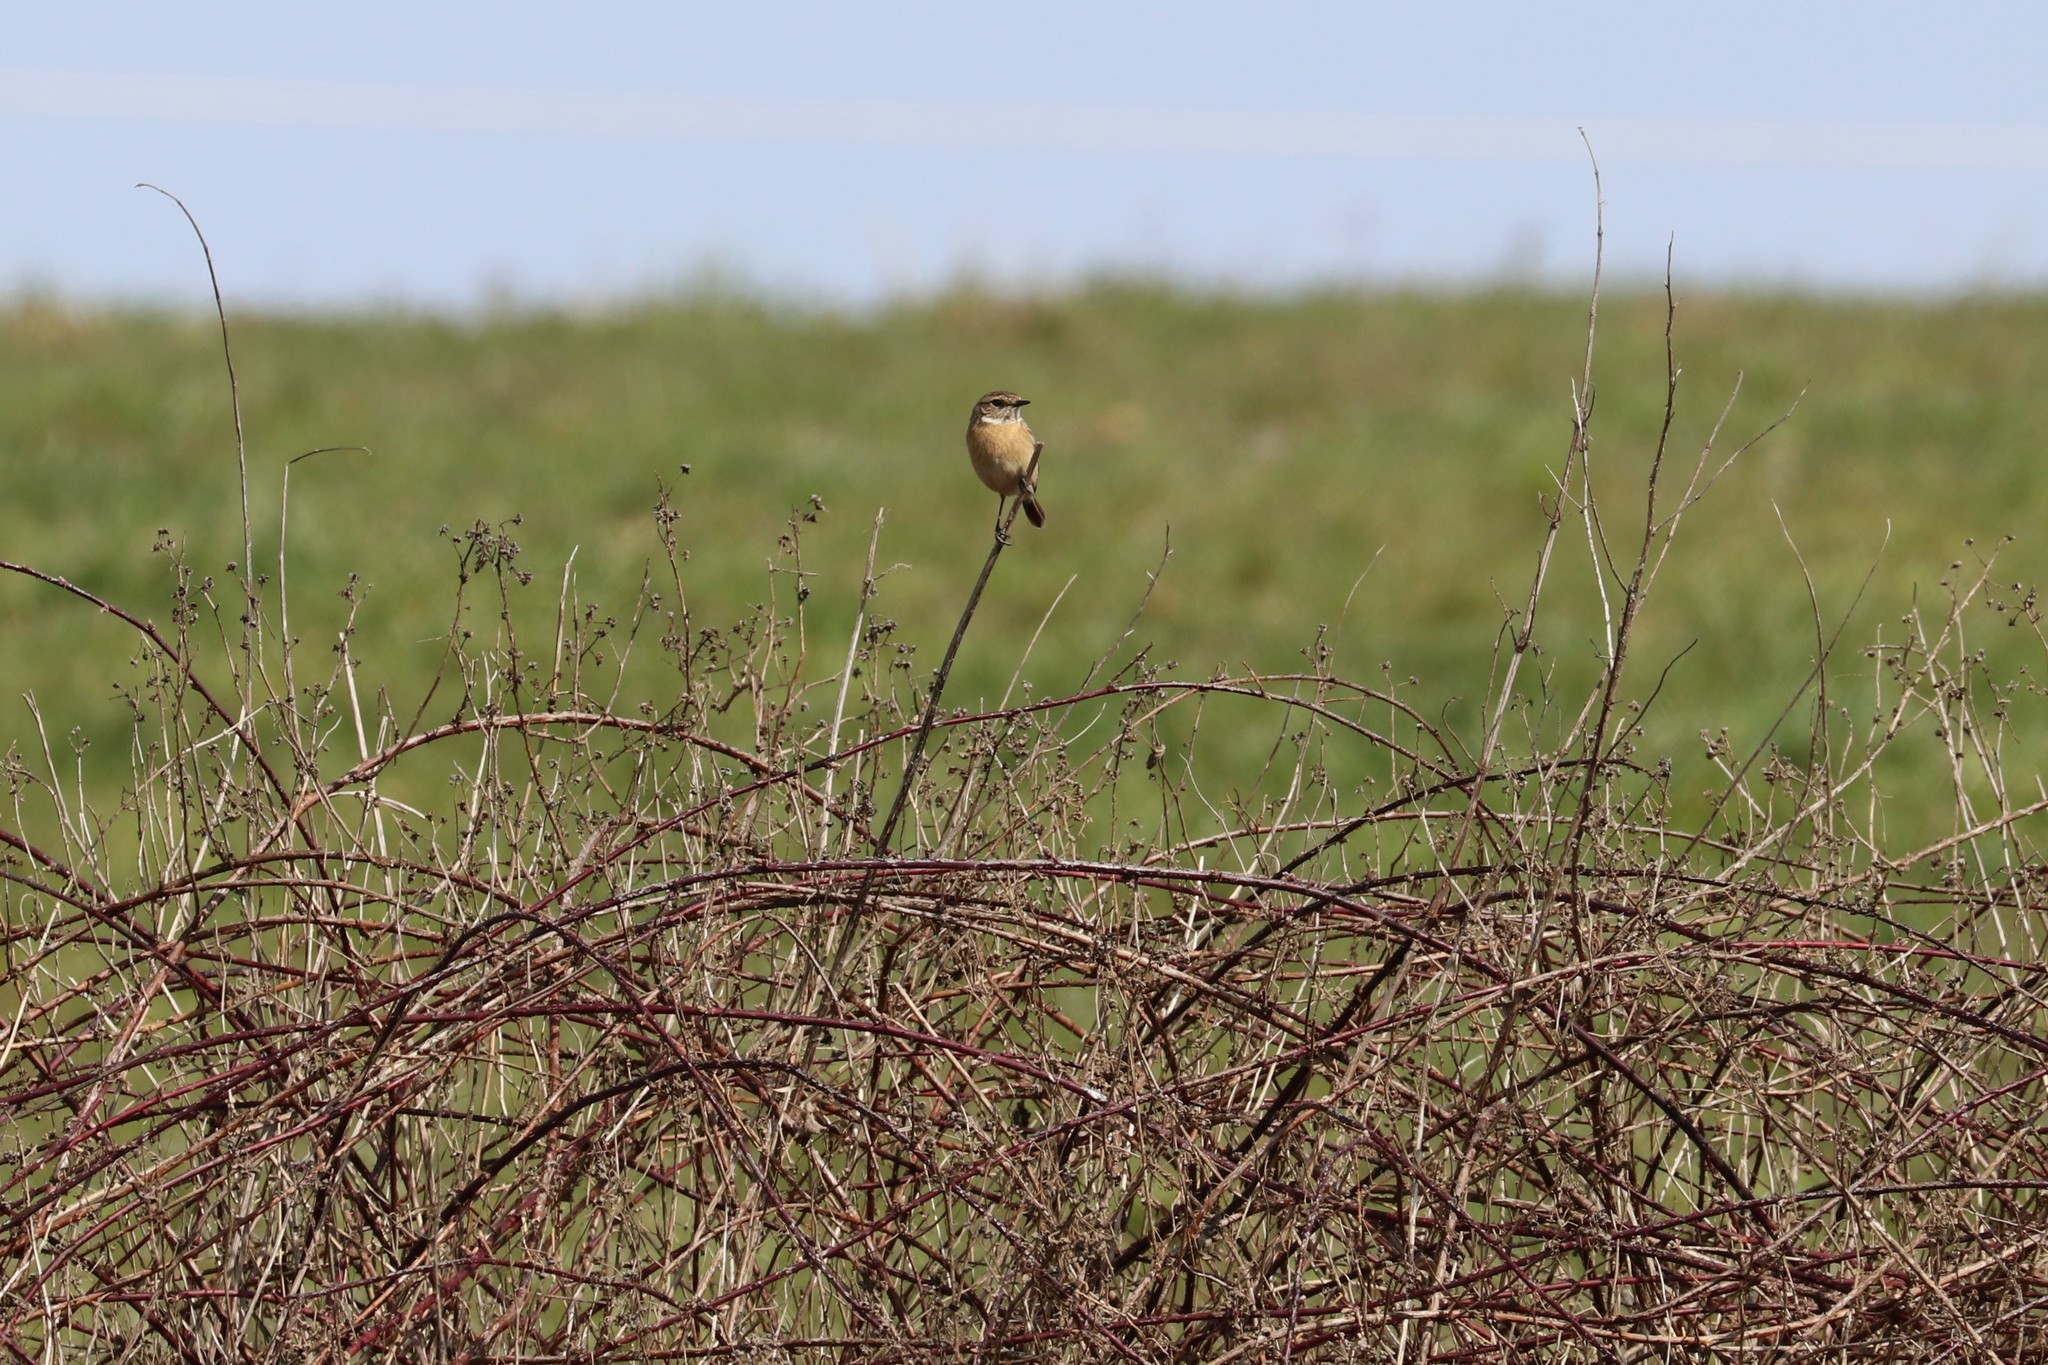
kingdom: Animalia
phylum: Chordata
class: Aves
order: Passeriformes
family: Muscicapidae
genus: Saxicola
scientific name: Saxicola rubicola
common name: European stonechat
